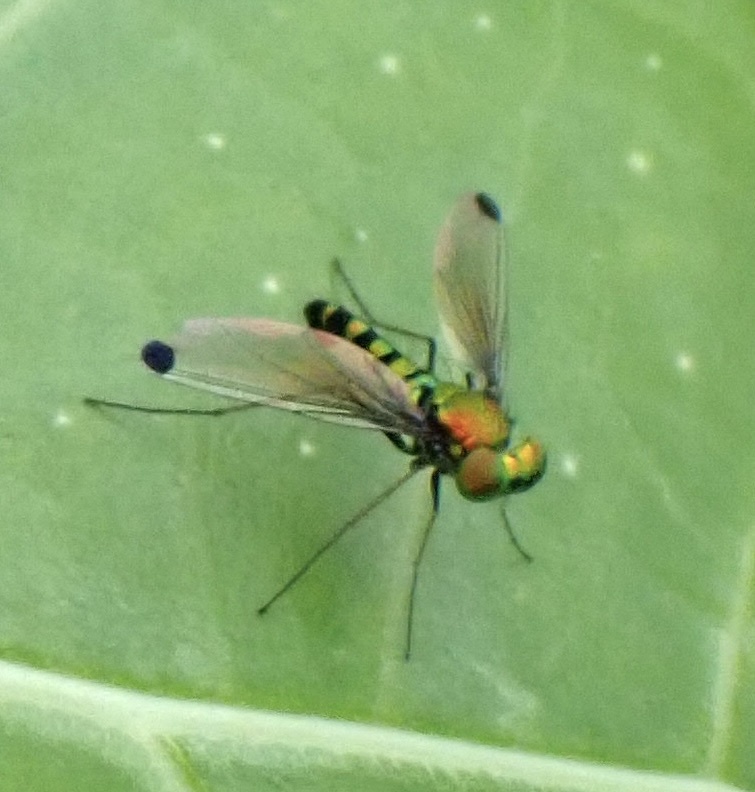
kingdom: Animalia
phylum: Arthropoda
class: Insecta
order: Diptera
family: Dolichopodidae
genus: Krakatauia
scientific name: Krakatauia
